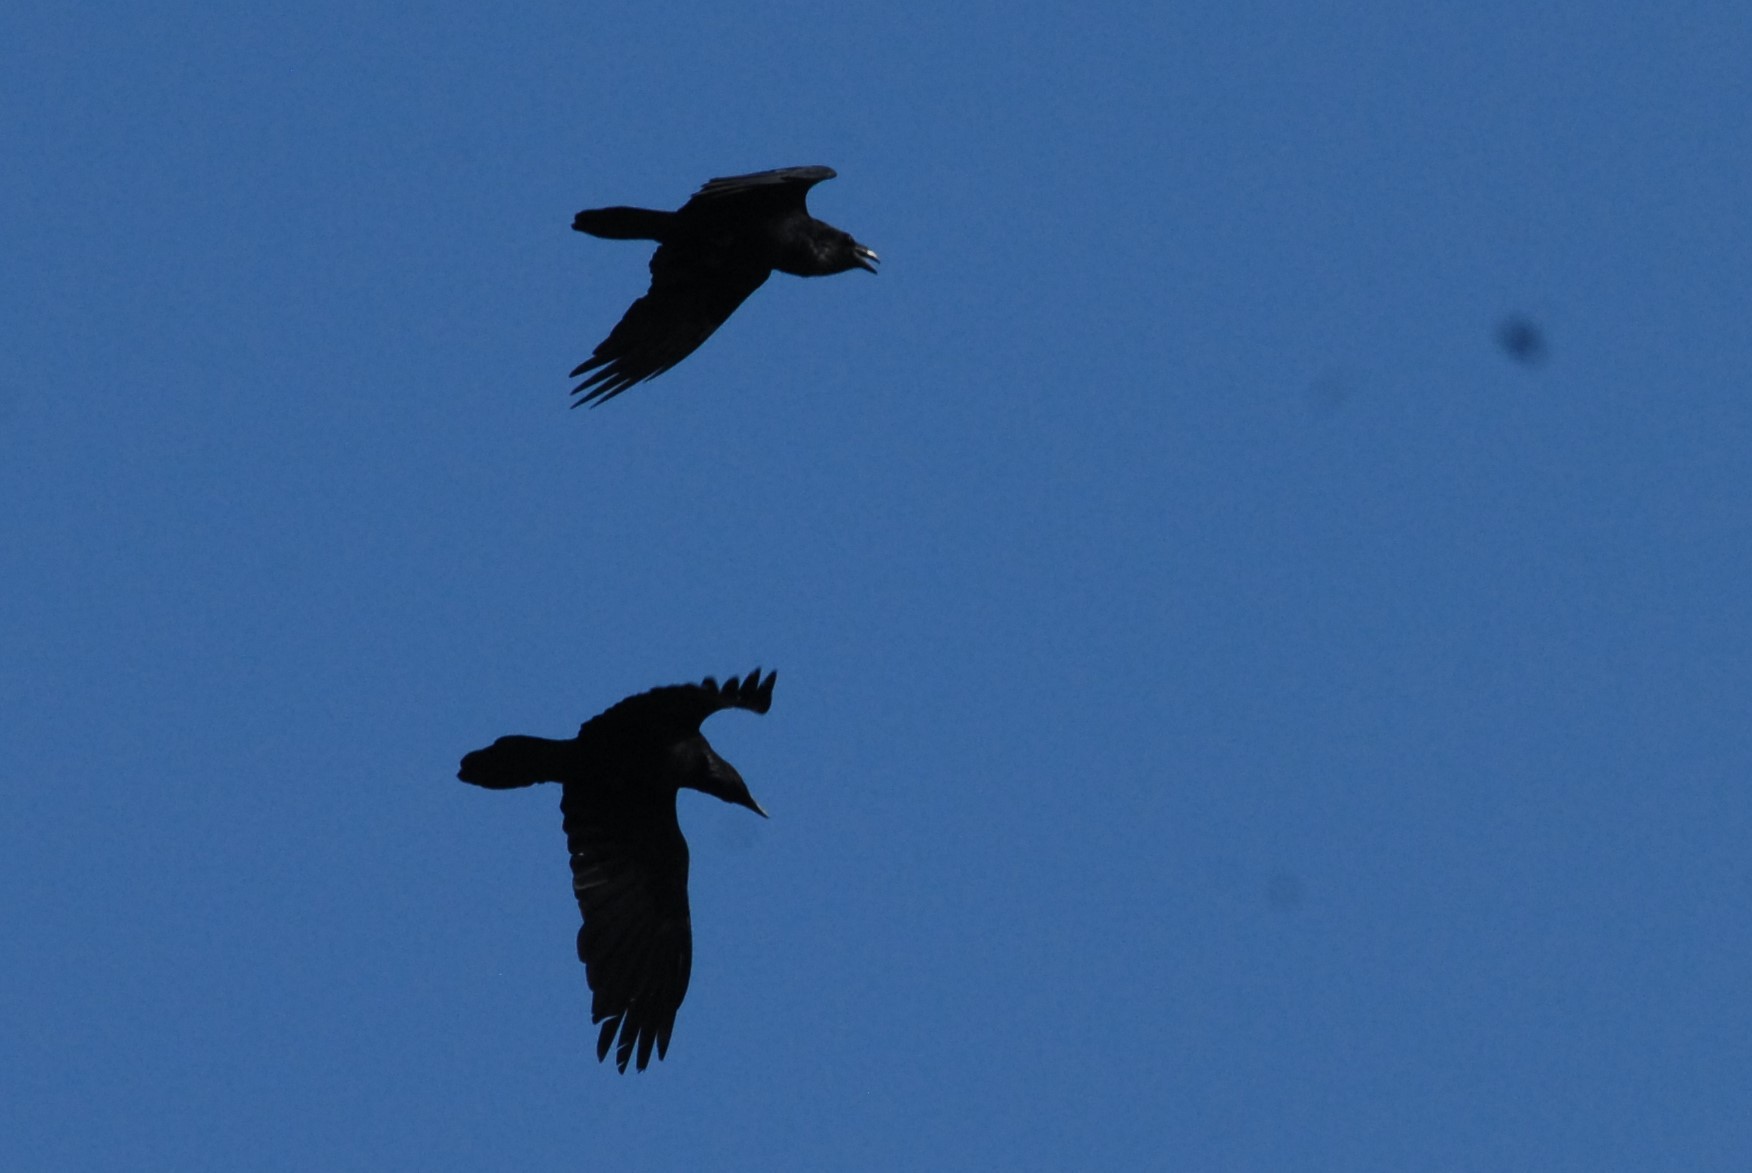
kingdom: Animalia
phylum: Chordata
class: Aves
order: Passeriformes
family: Corvidae
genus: Corvus
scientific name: Corvus corax
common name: Common raven
